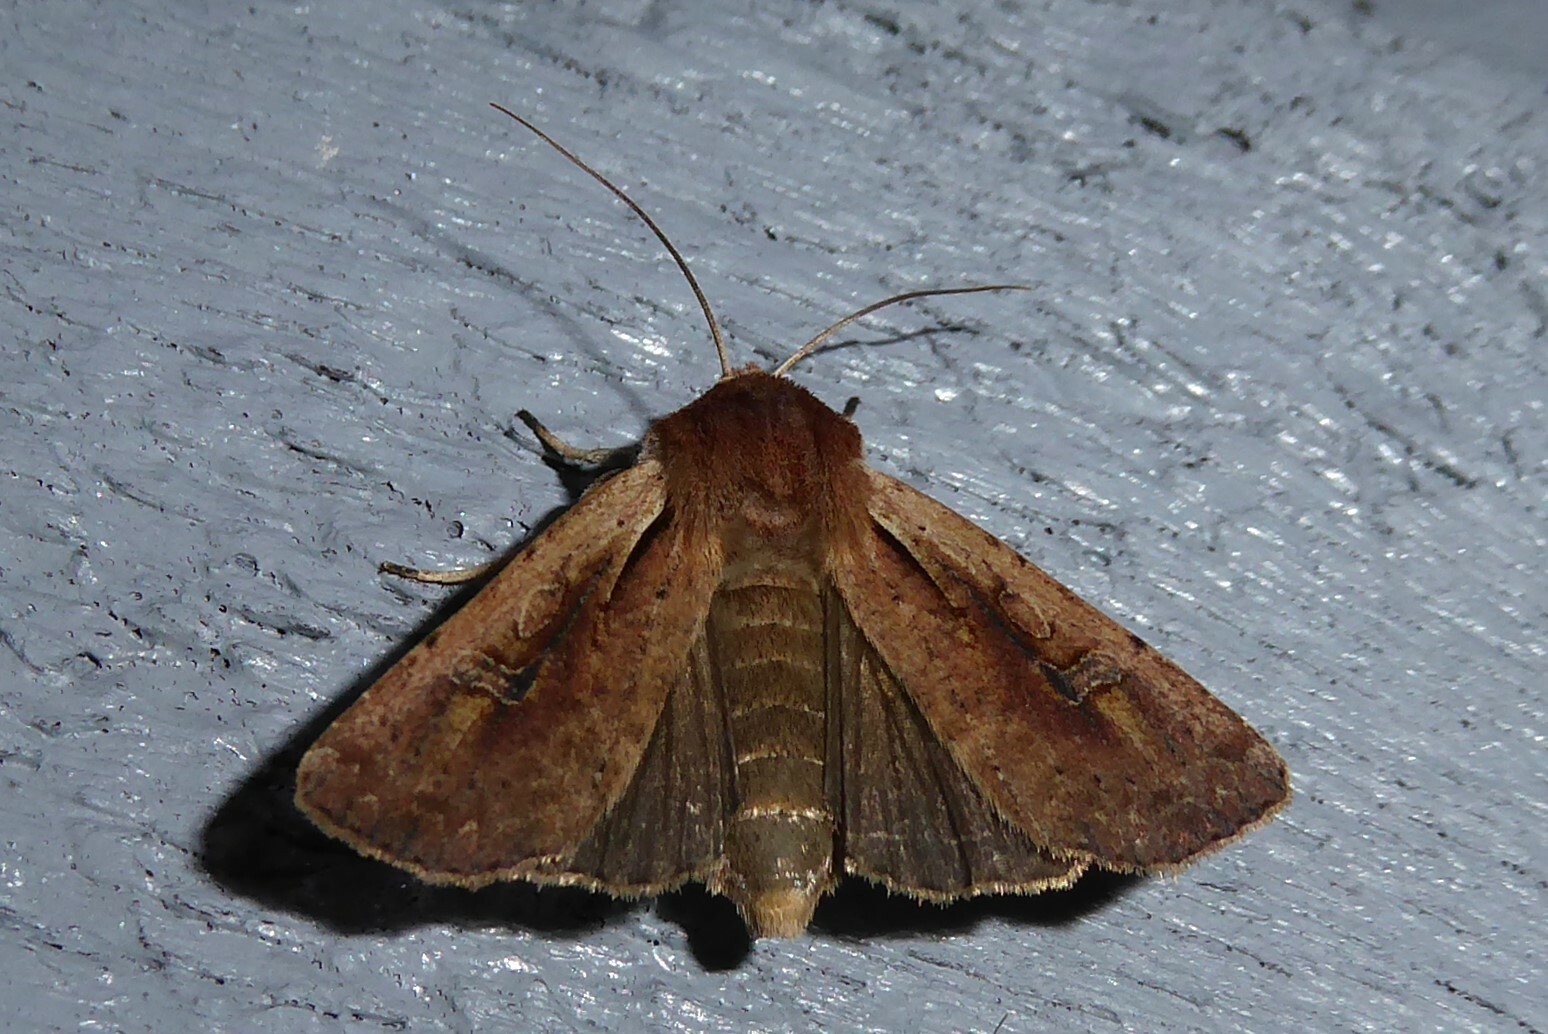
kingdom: Animalia
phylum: Arthropoda
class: Insecta
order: Lepidoptera
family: Noctuidae
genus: Ichneutica
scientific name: Ichneutica atristriga
